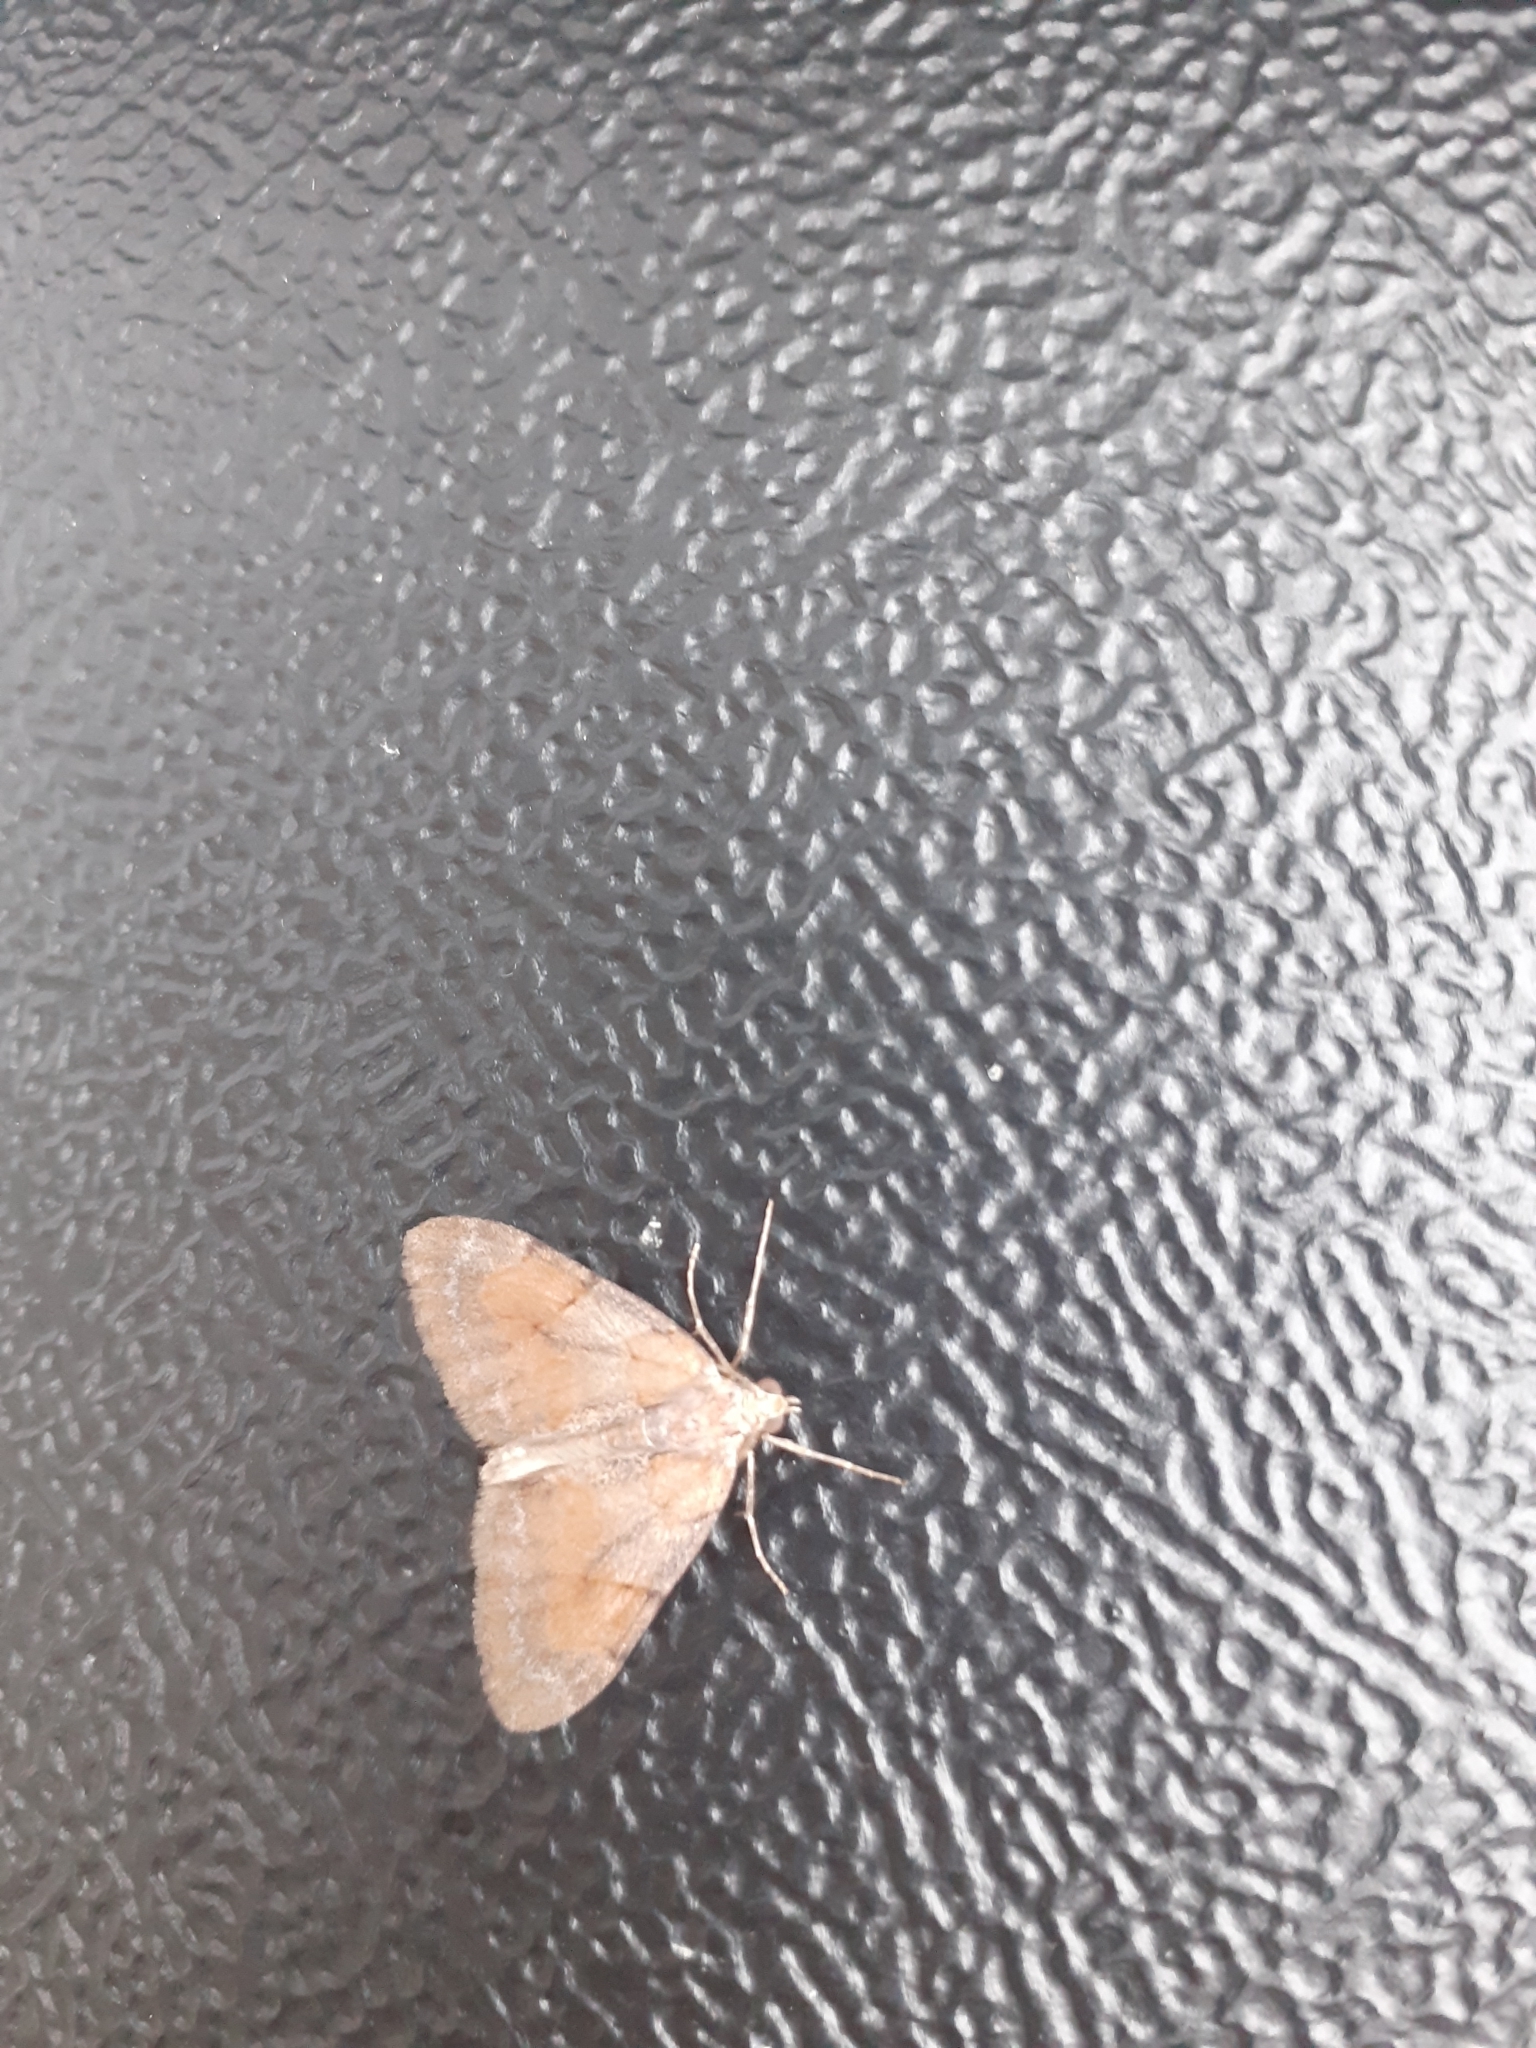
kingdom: Animalia
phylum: Arthropoda
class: Insecta
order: Lepidoptera
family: Geometridae
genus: Pennithera
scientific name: Pennithera firmata
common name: Pine carpet
